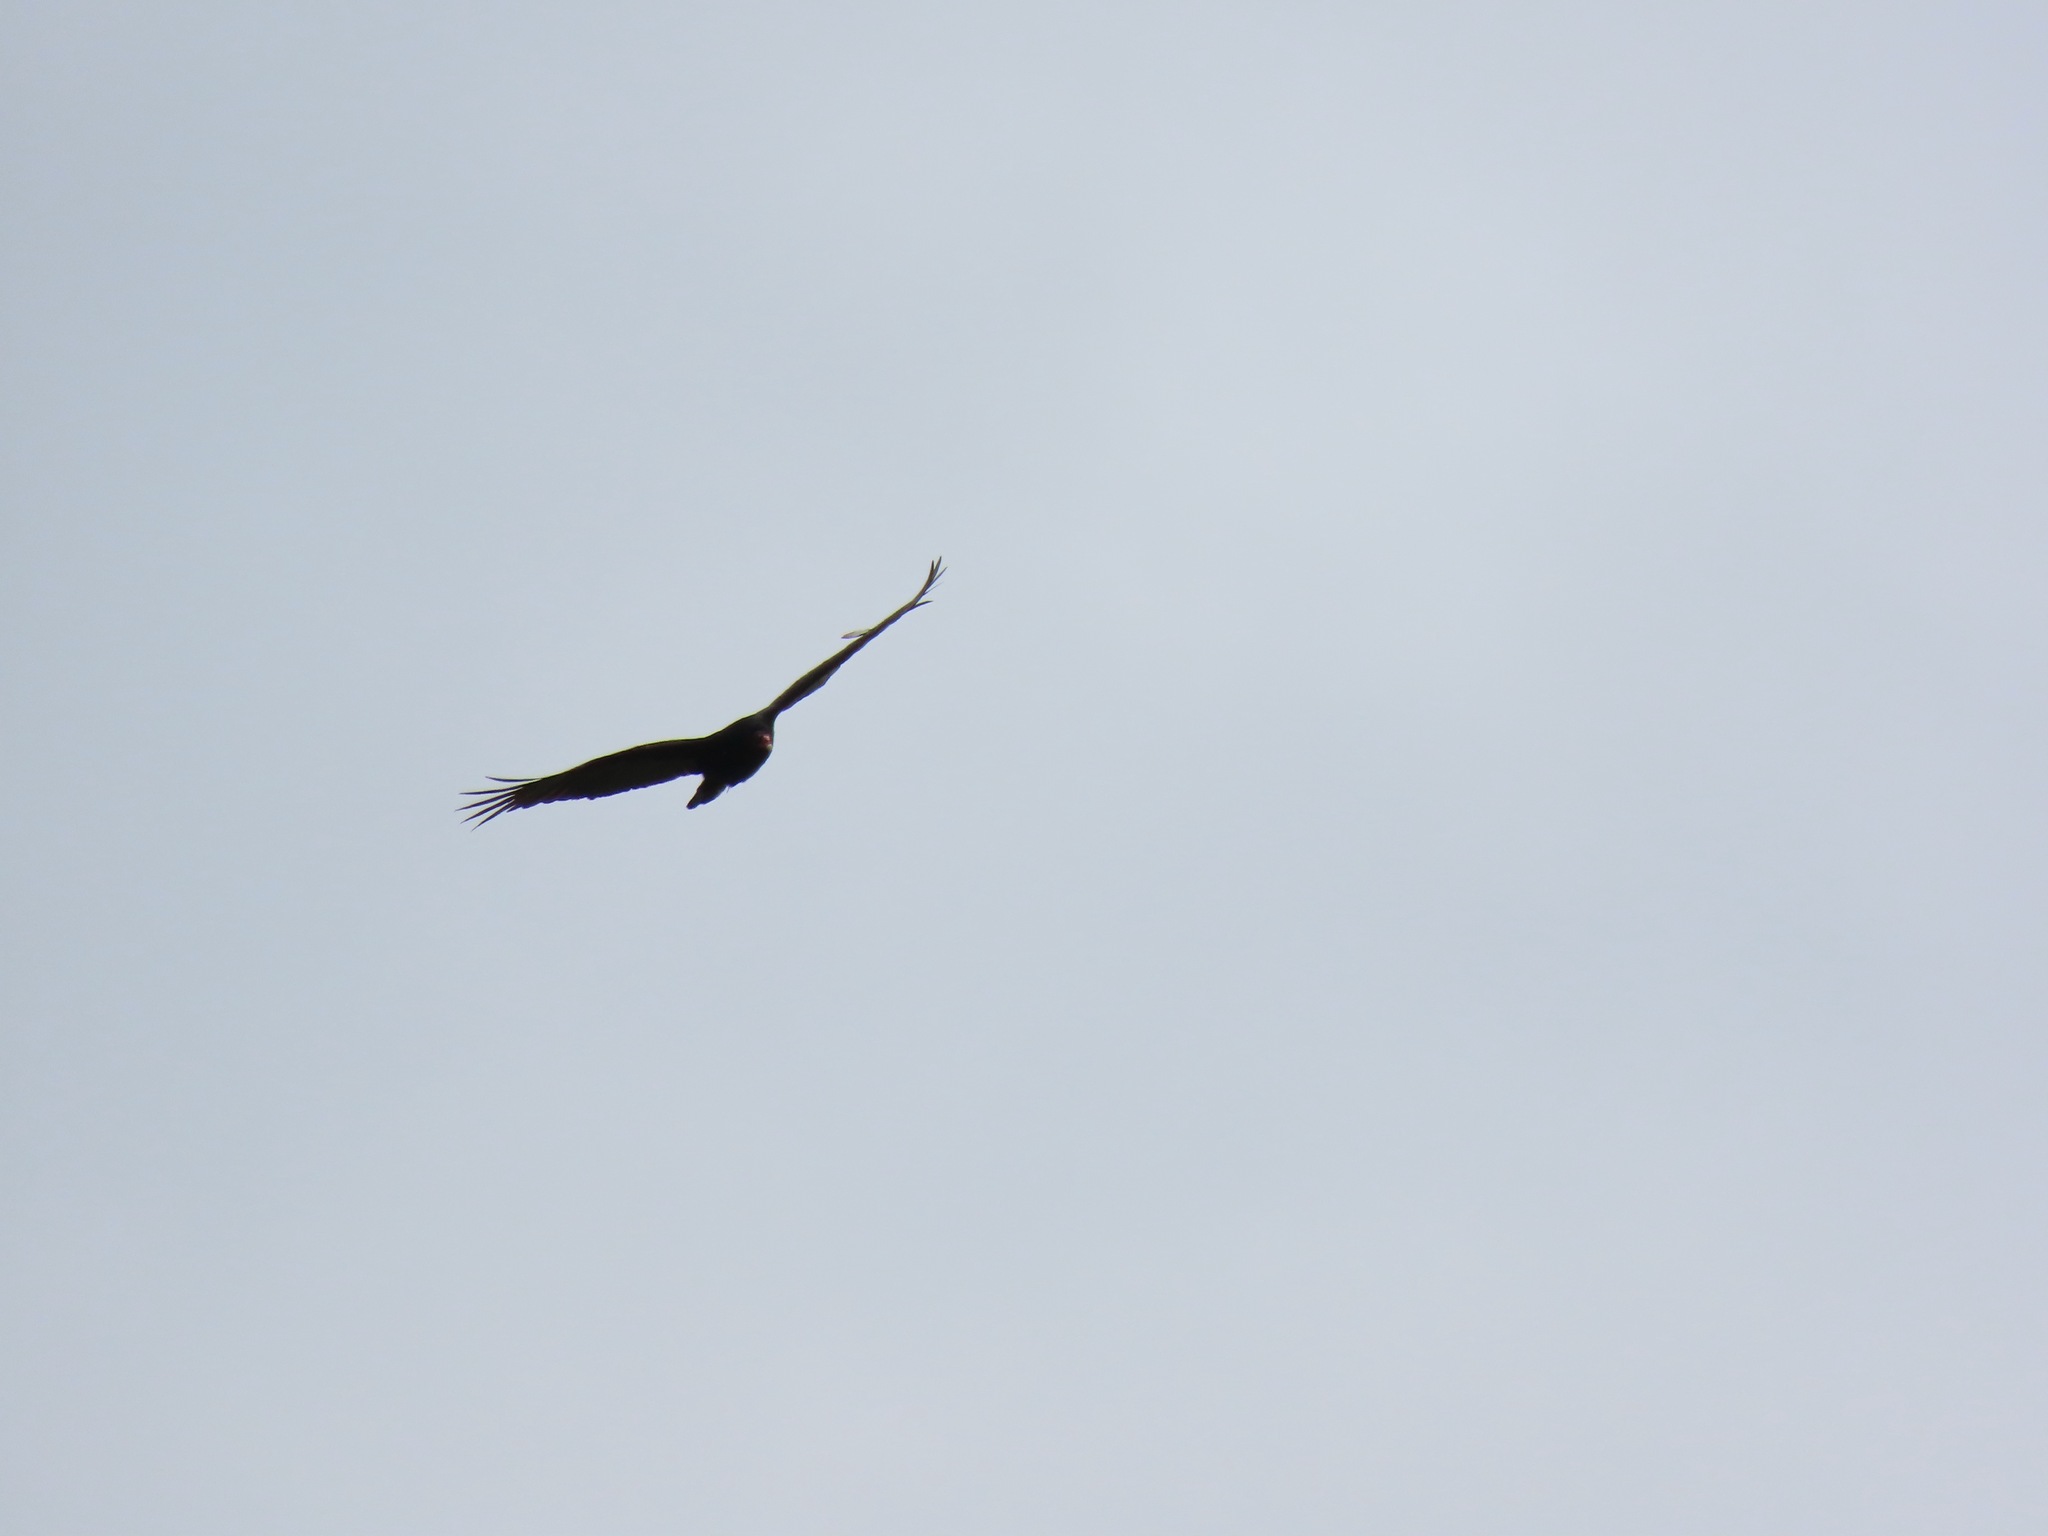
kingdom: Animalia
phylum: Chordata
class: Aves
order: Accipitriformes
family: Cathartidae
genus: Cathartes
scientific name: Cathartes aura
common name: Turkey vulture
